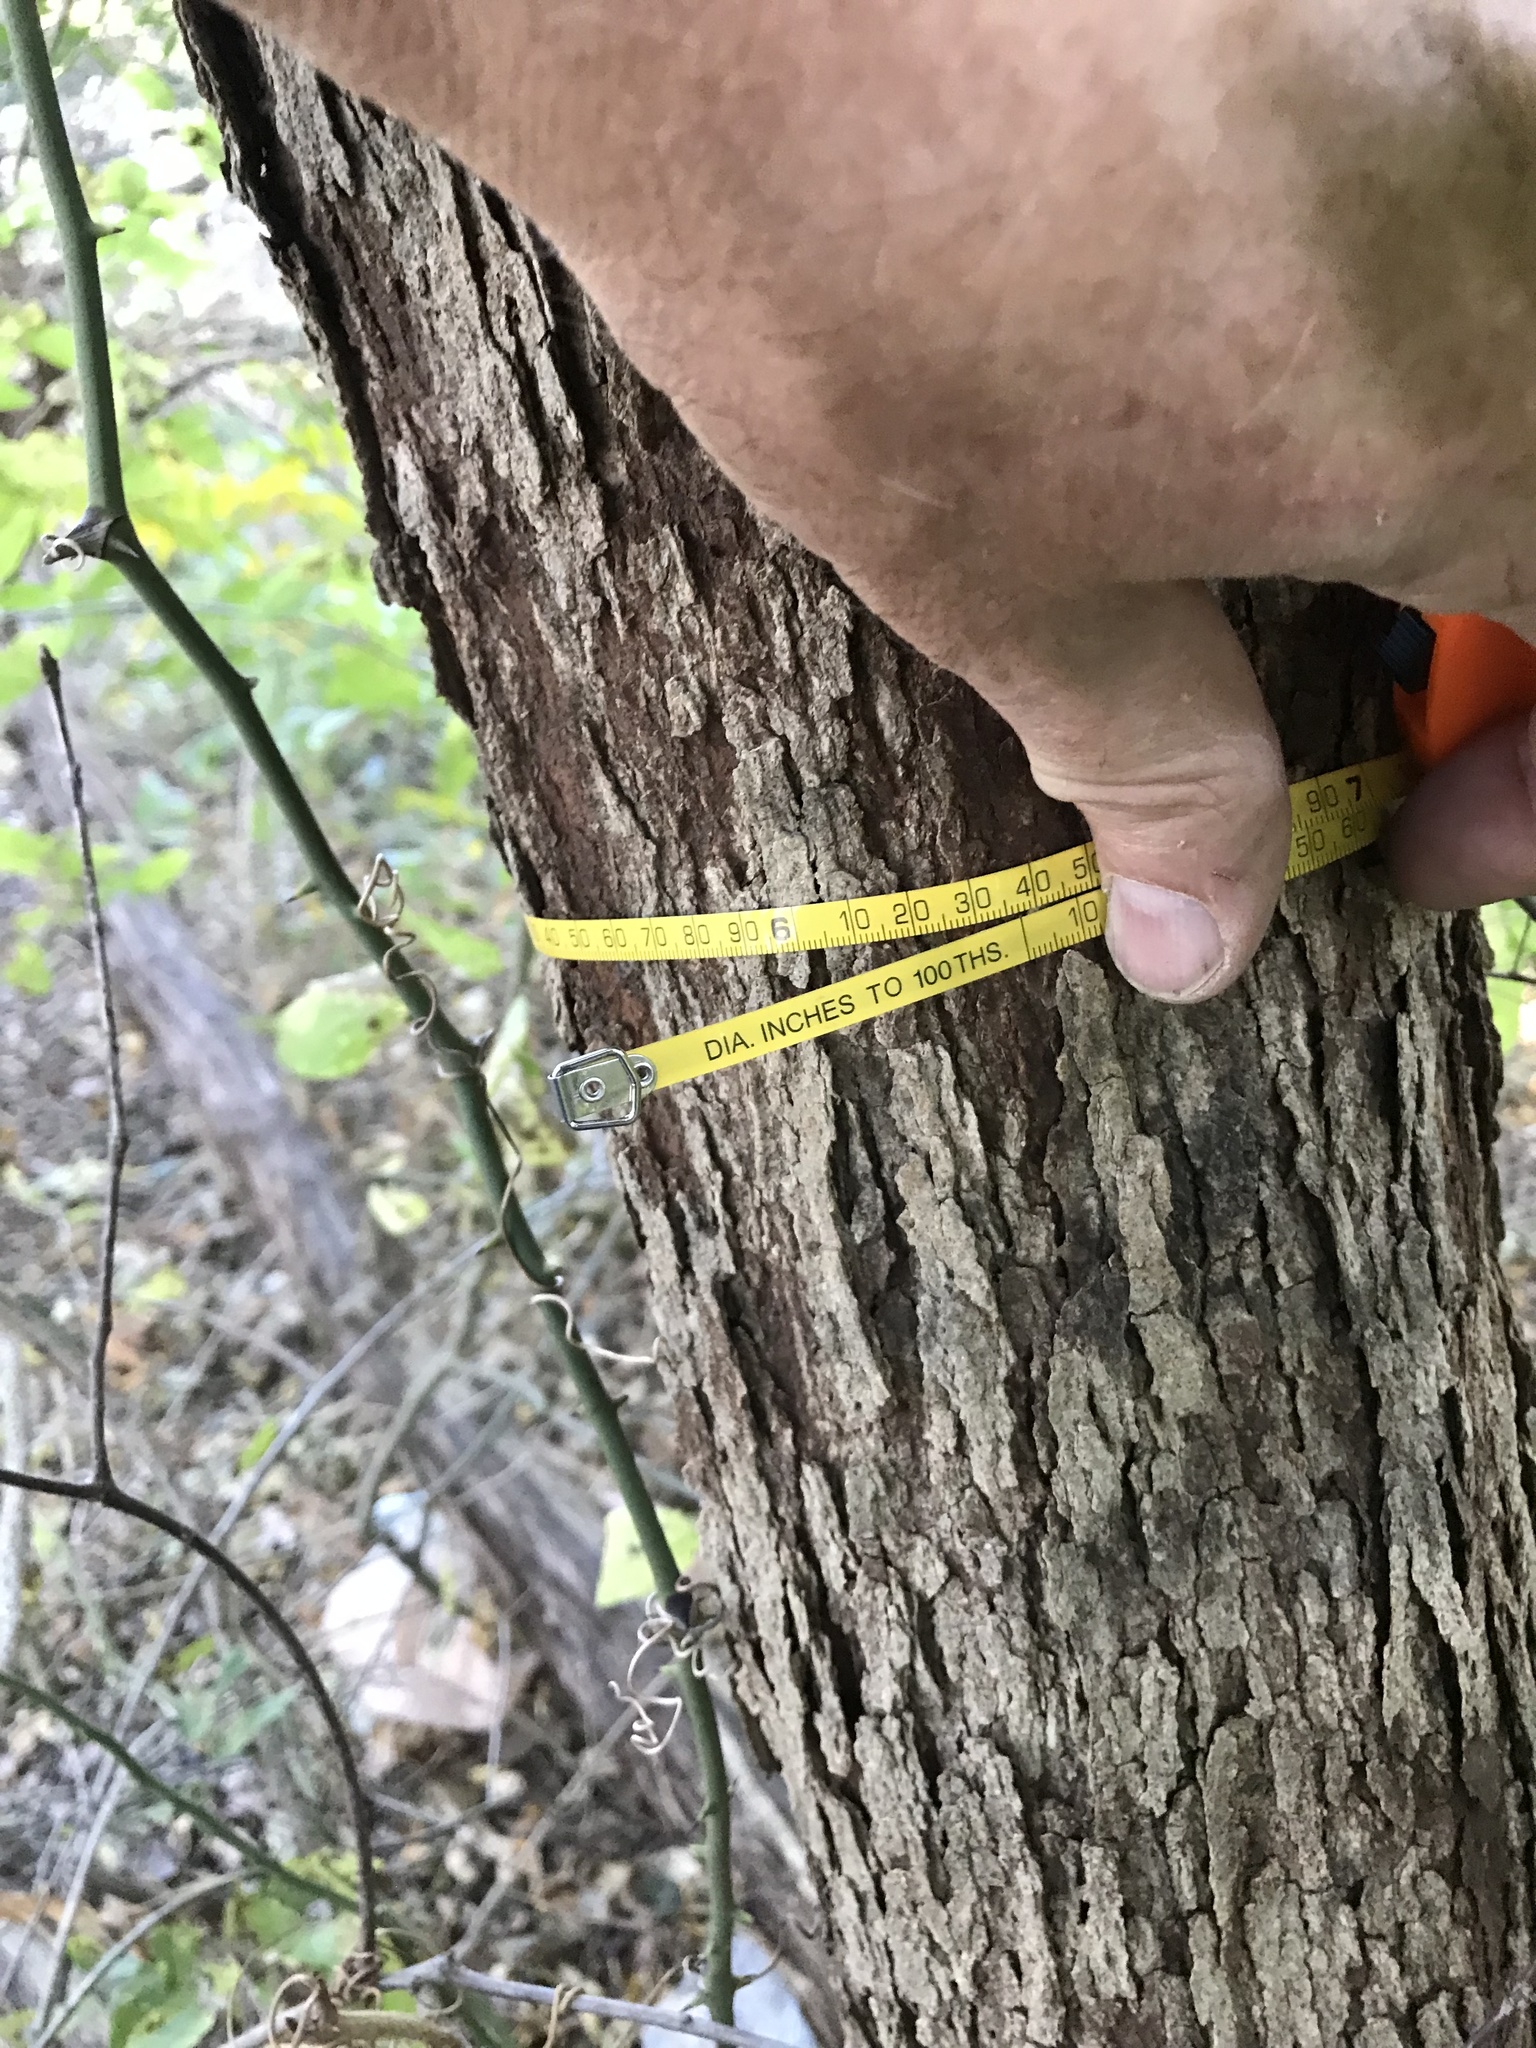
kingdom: Plantae
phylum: Tracheophyta
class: Magnoliopsida
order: Sapindales
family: Sapindaceae
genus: Sapindus
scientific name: Sapindus drummondii
